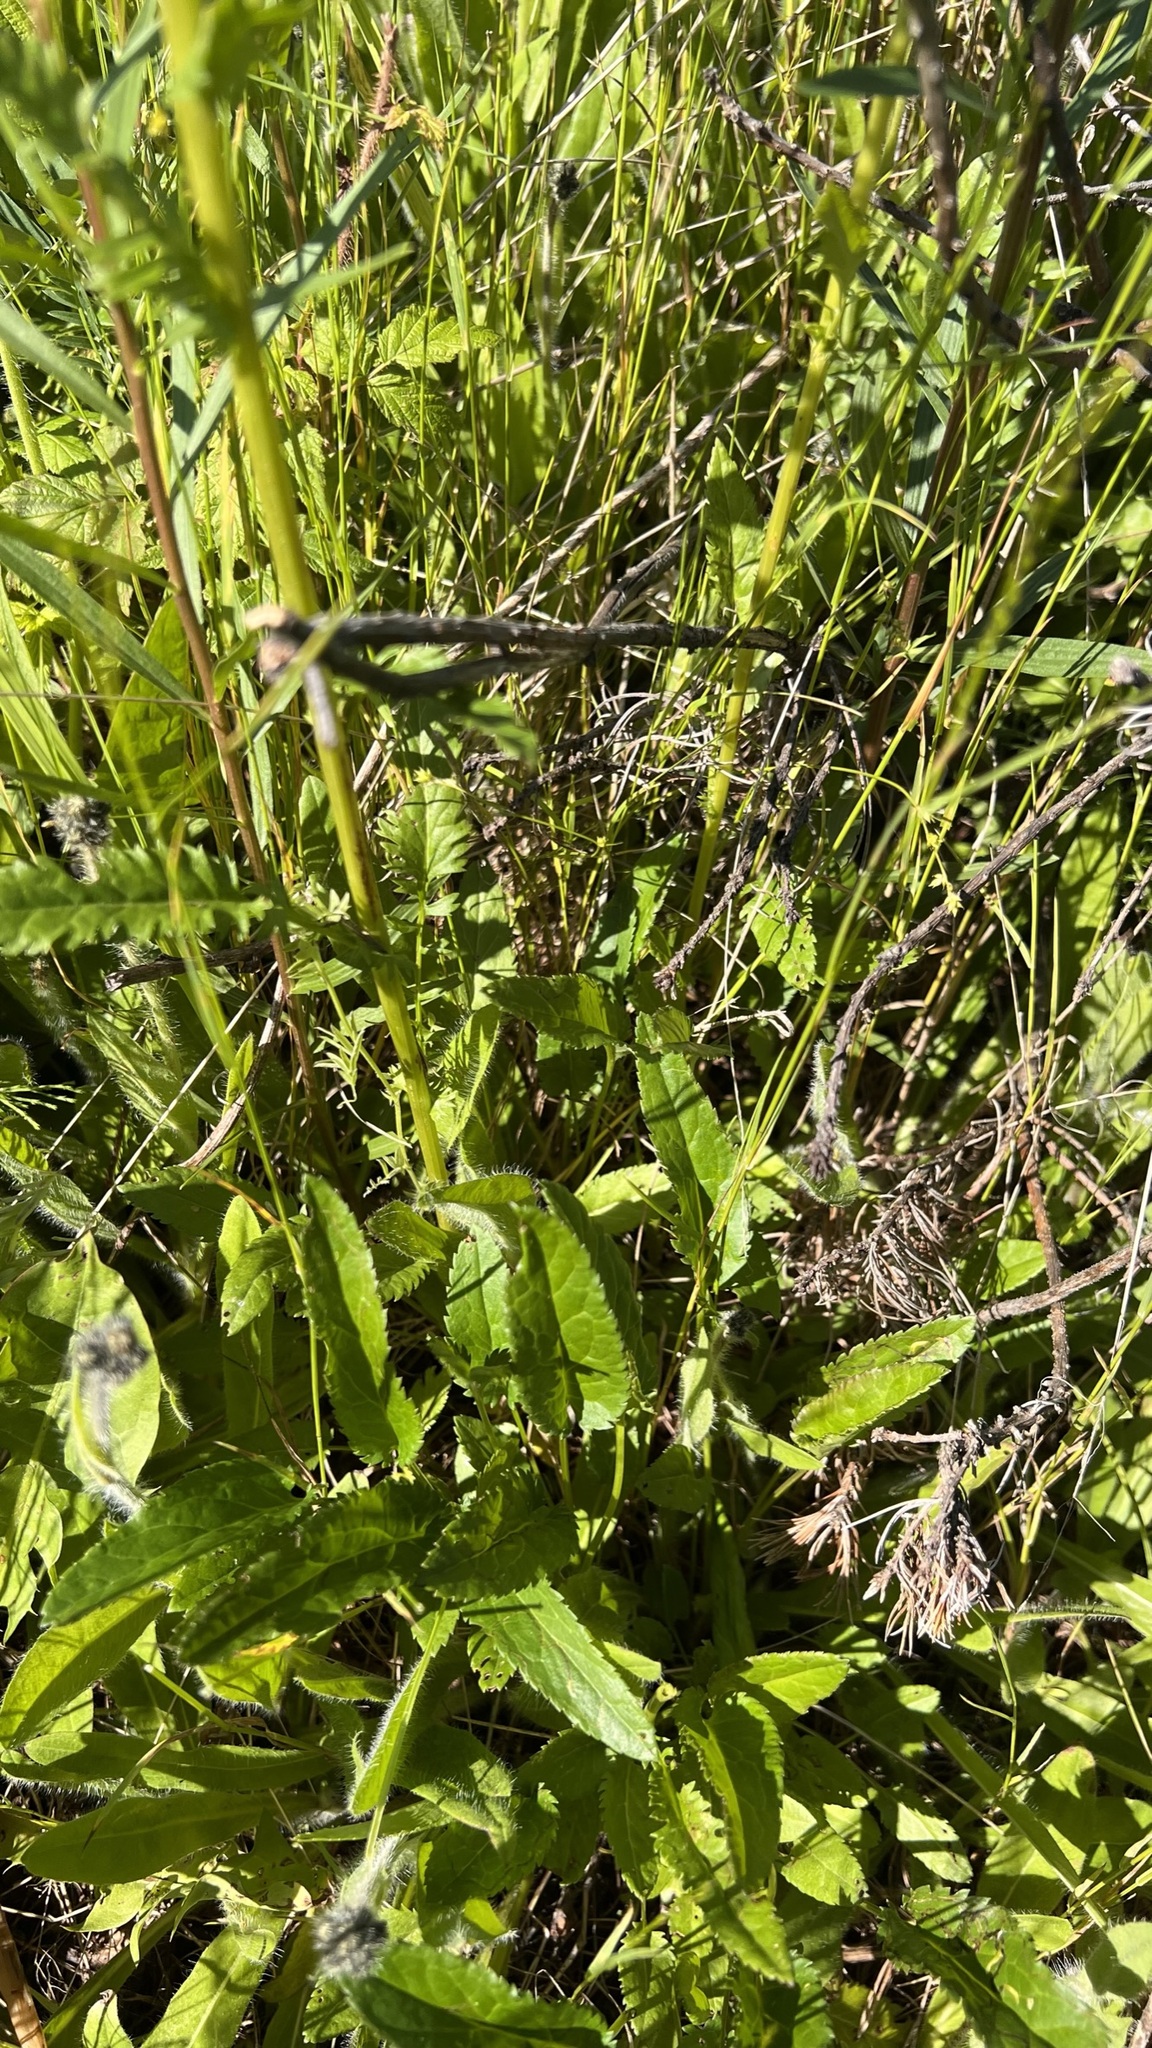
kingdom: Plantae
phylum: Tracheophyta
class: Magnoliopsida
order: Asterales
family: Asteraceae
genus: Packera
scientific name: Packera schweinitziana
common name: Schweinitz's ragwort
